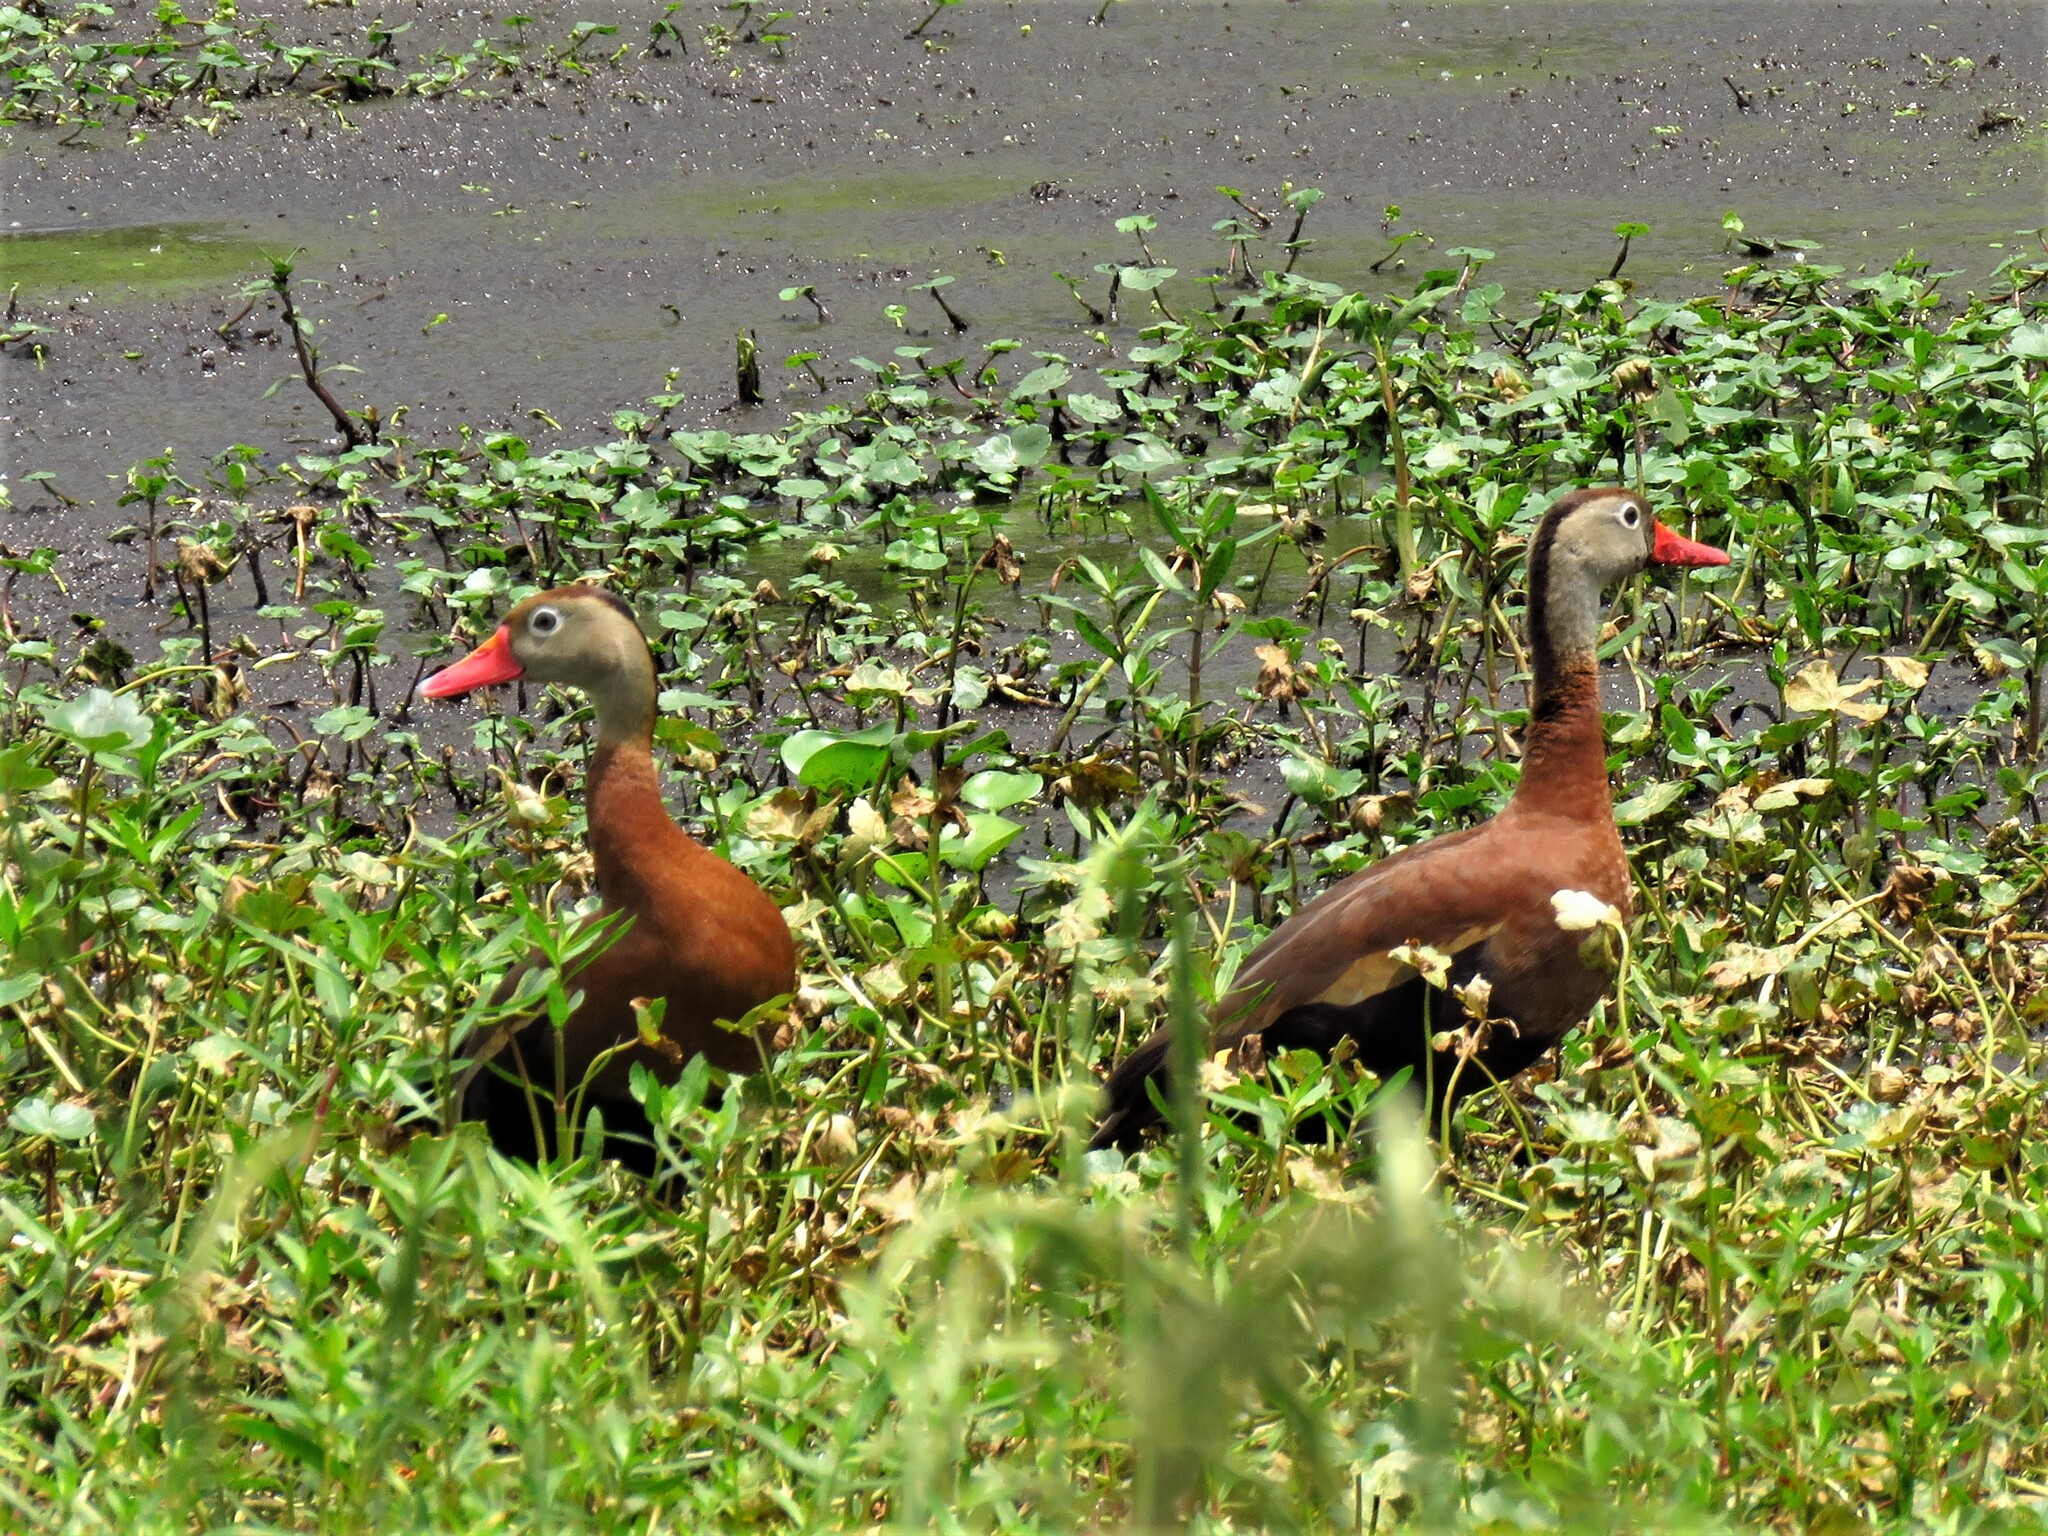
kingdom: Animalia
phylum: Chordata
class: Aves
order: Anseriformes
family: Anatidae
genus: Dendrocygna
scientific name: Dendrocygna autumnalis
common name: Black-bellied whistling duck
